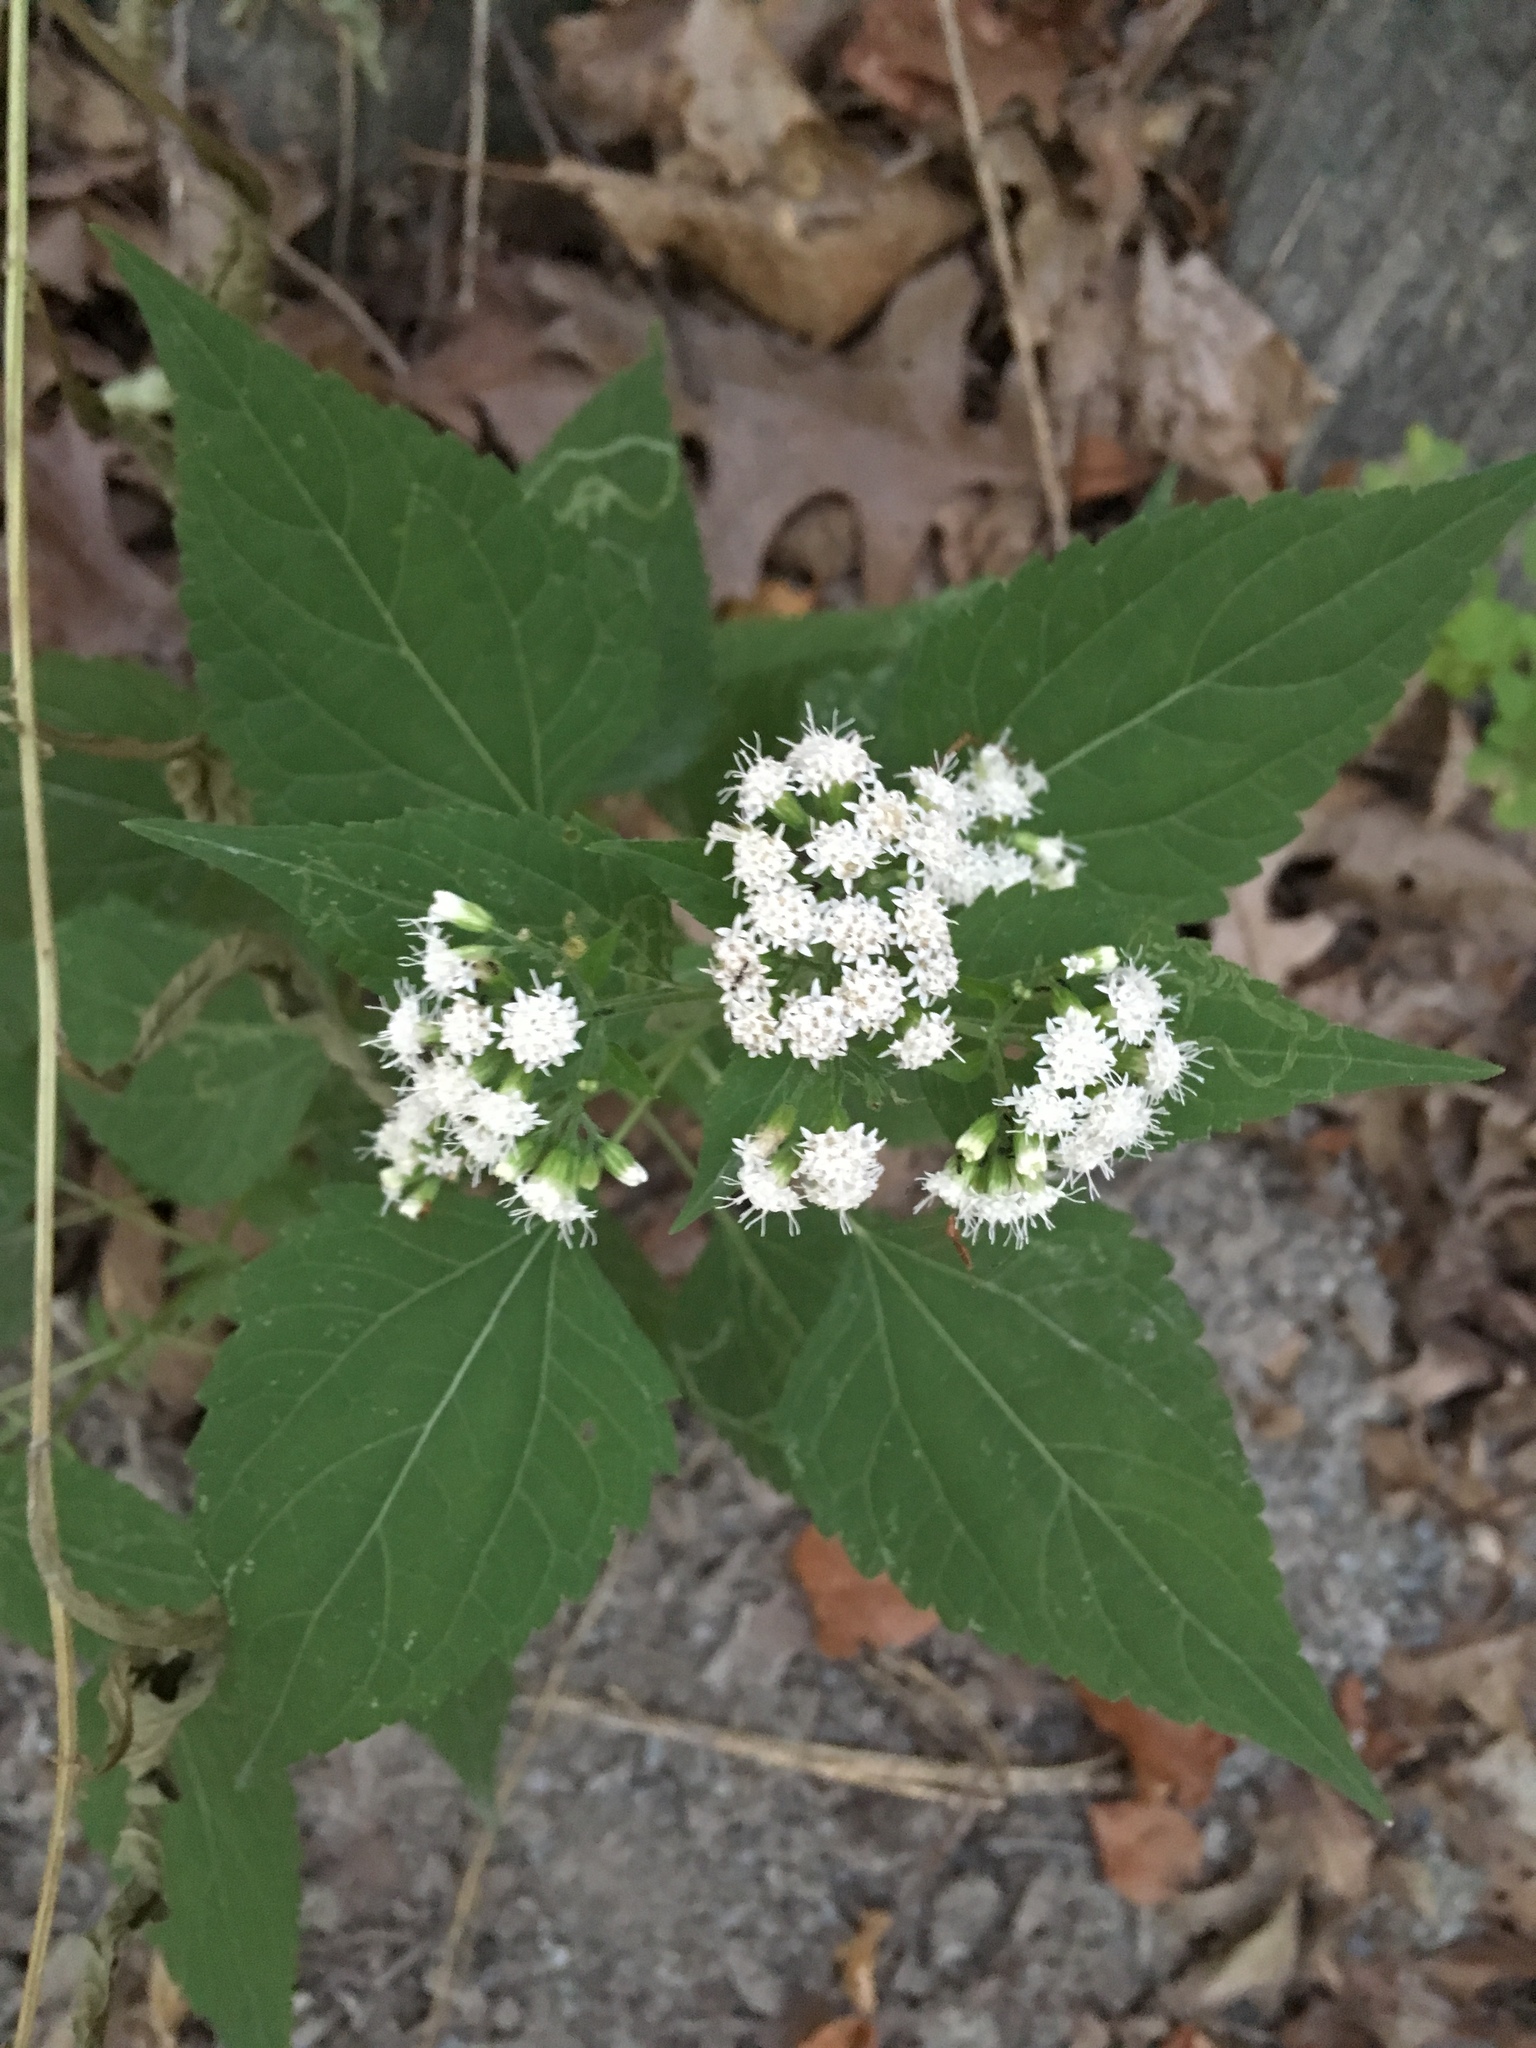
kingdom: Plantae
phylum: Tracheophyta
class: Magnoliopsida
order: Asterales
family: Asteraceae
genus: Ageratina
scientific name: Ageratina altissima
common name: White snakeroot
